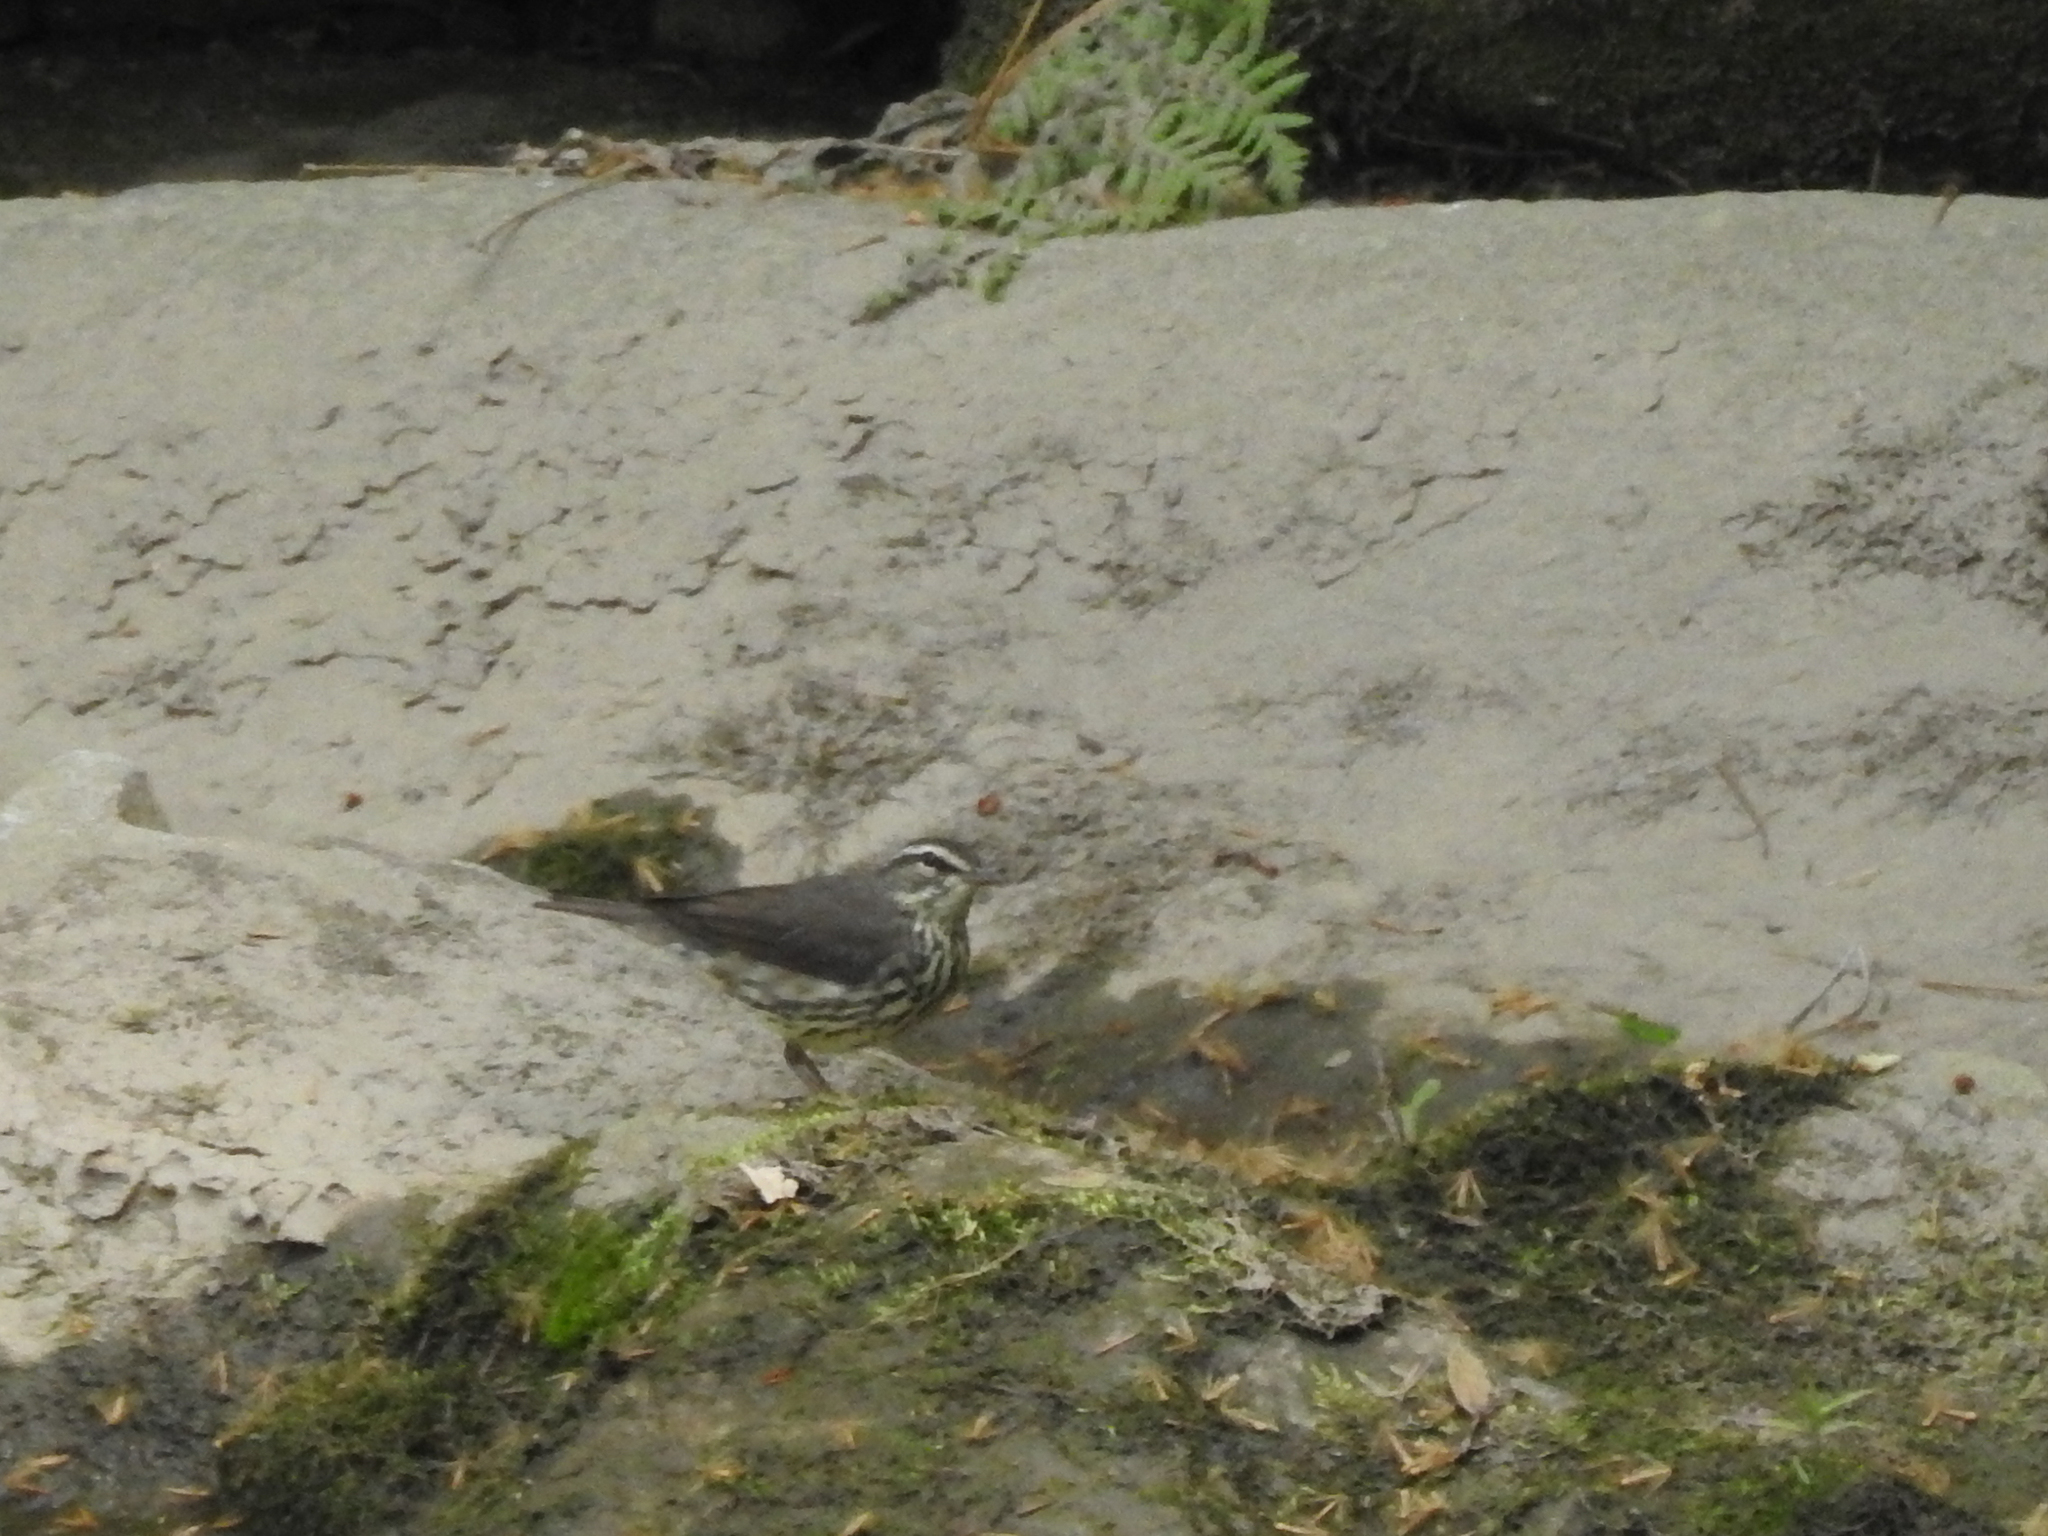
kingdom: Animalia
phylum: Chordata
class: Aves
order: Passeriformes
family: Parulidae
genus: Parkesia
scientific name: Parkesia motacilla
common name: Louisiana waterthrush
